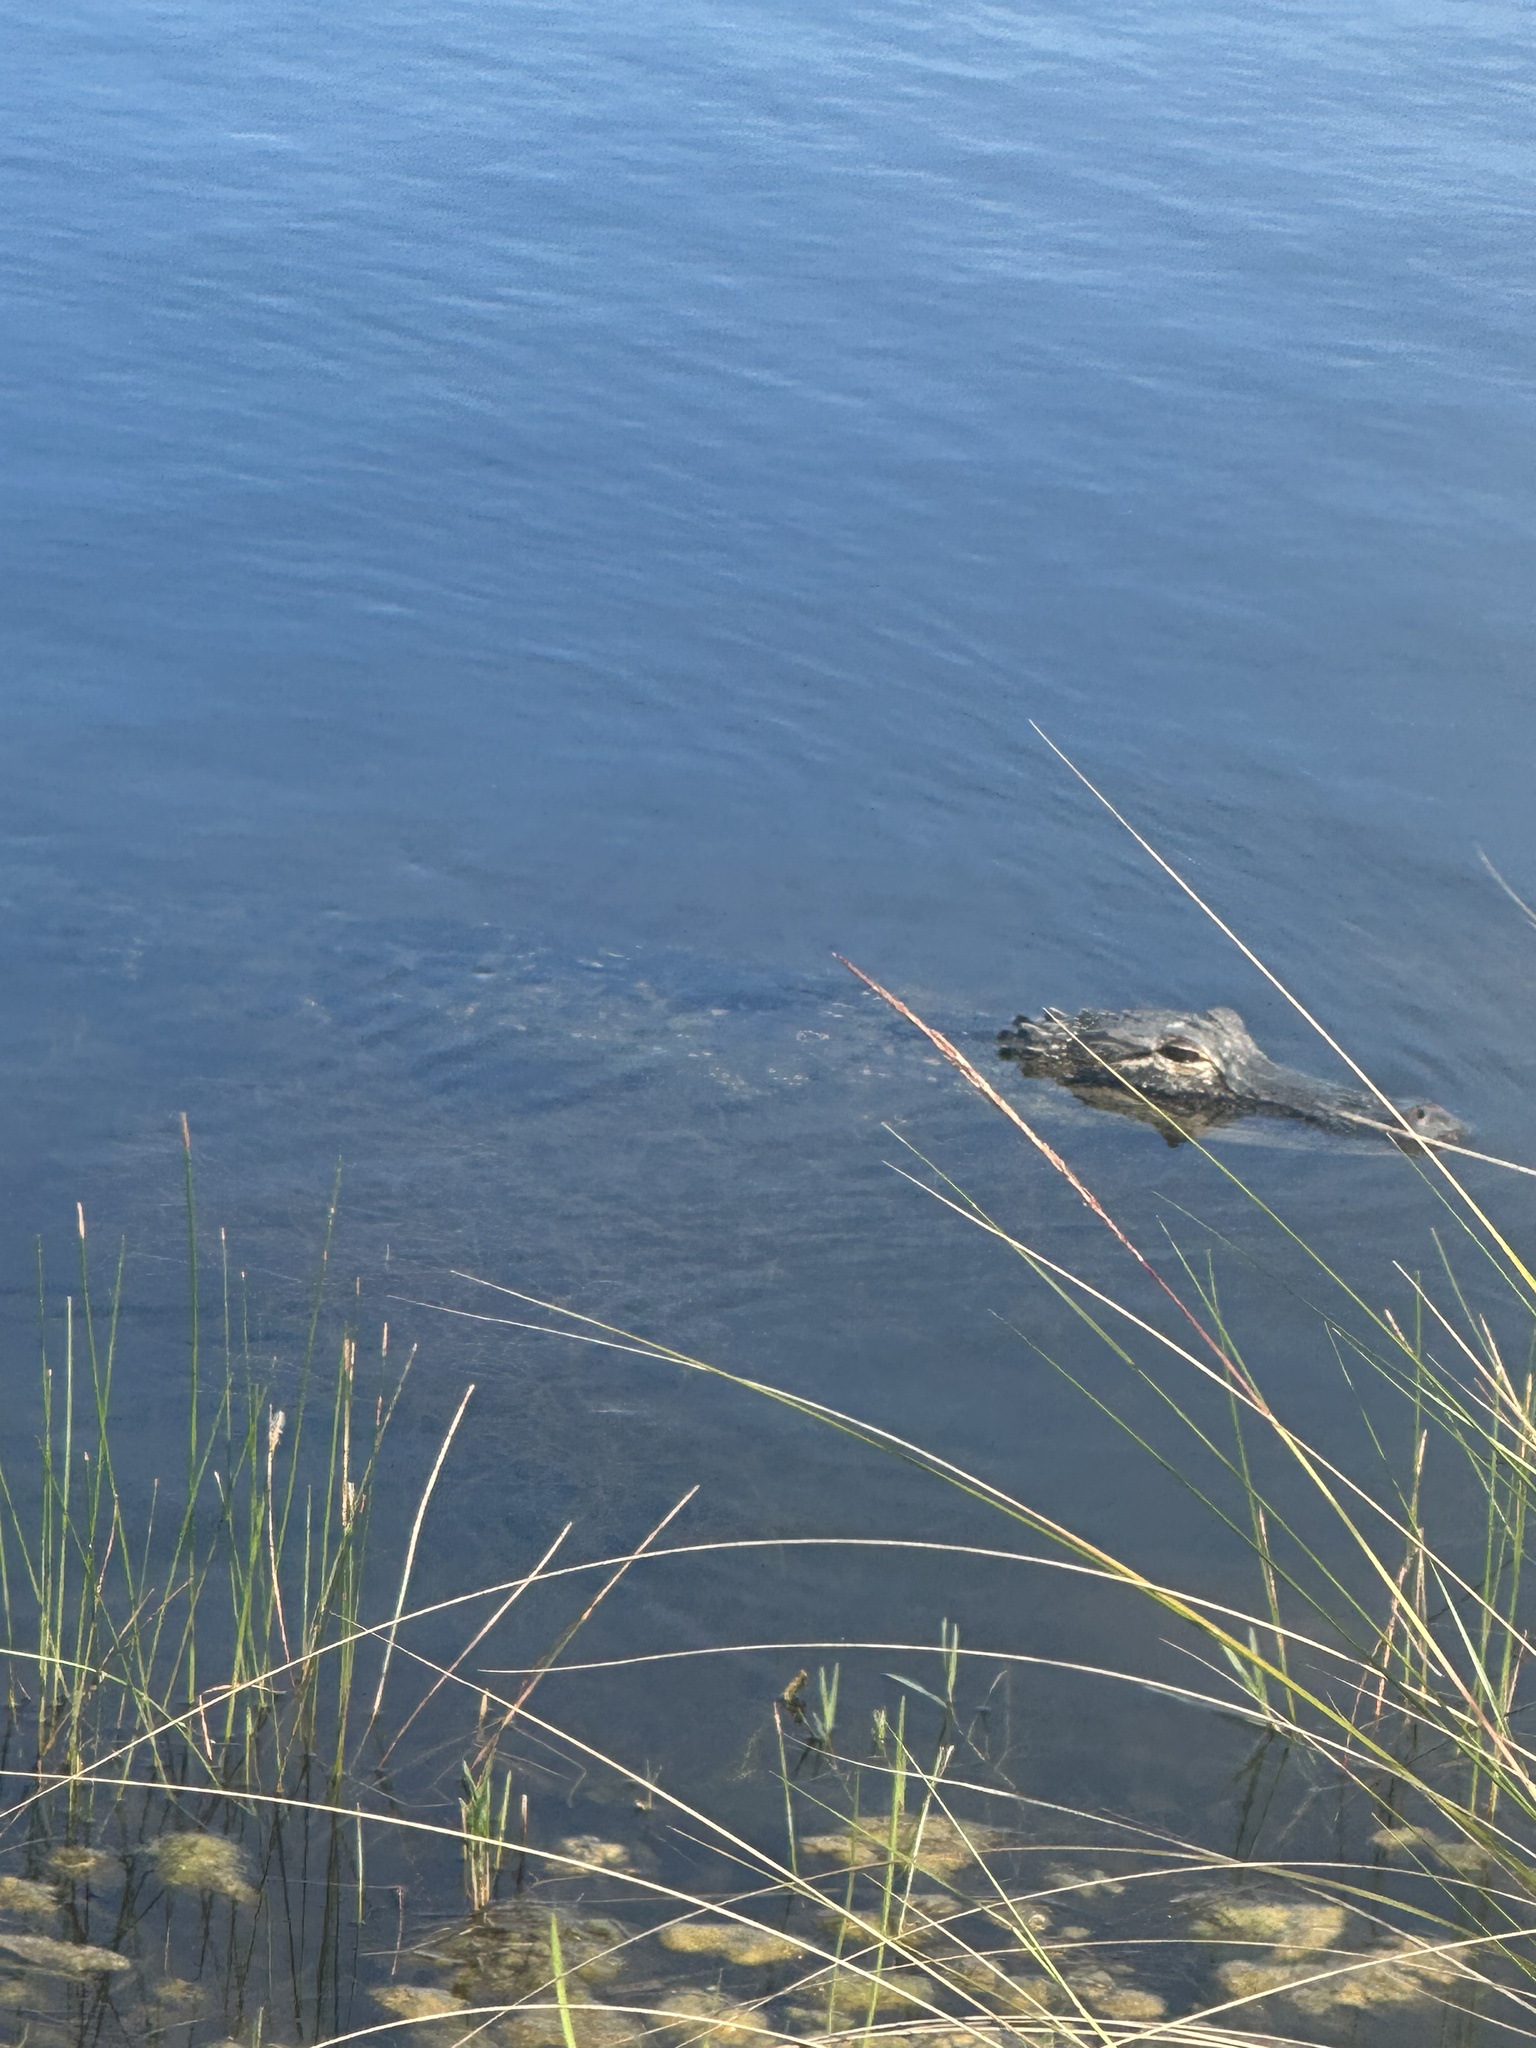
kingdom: Animalia
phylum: Chordata
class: Crocodylia
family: Alligatoridae
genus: Alligator
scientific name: Alligator mississippiensis
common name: American alligator
